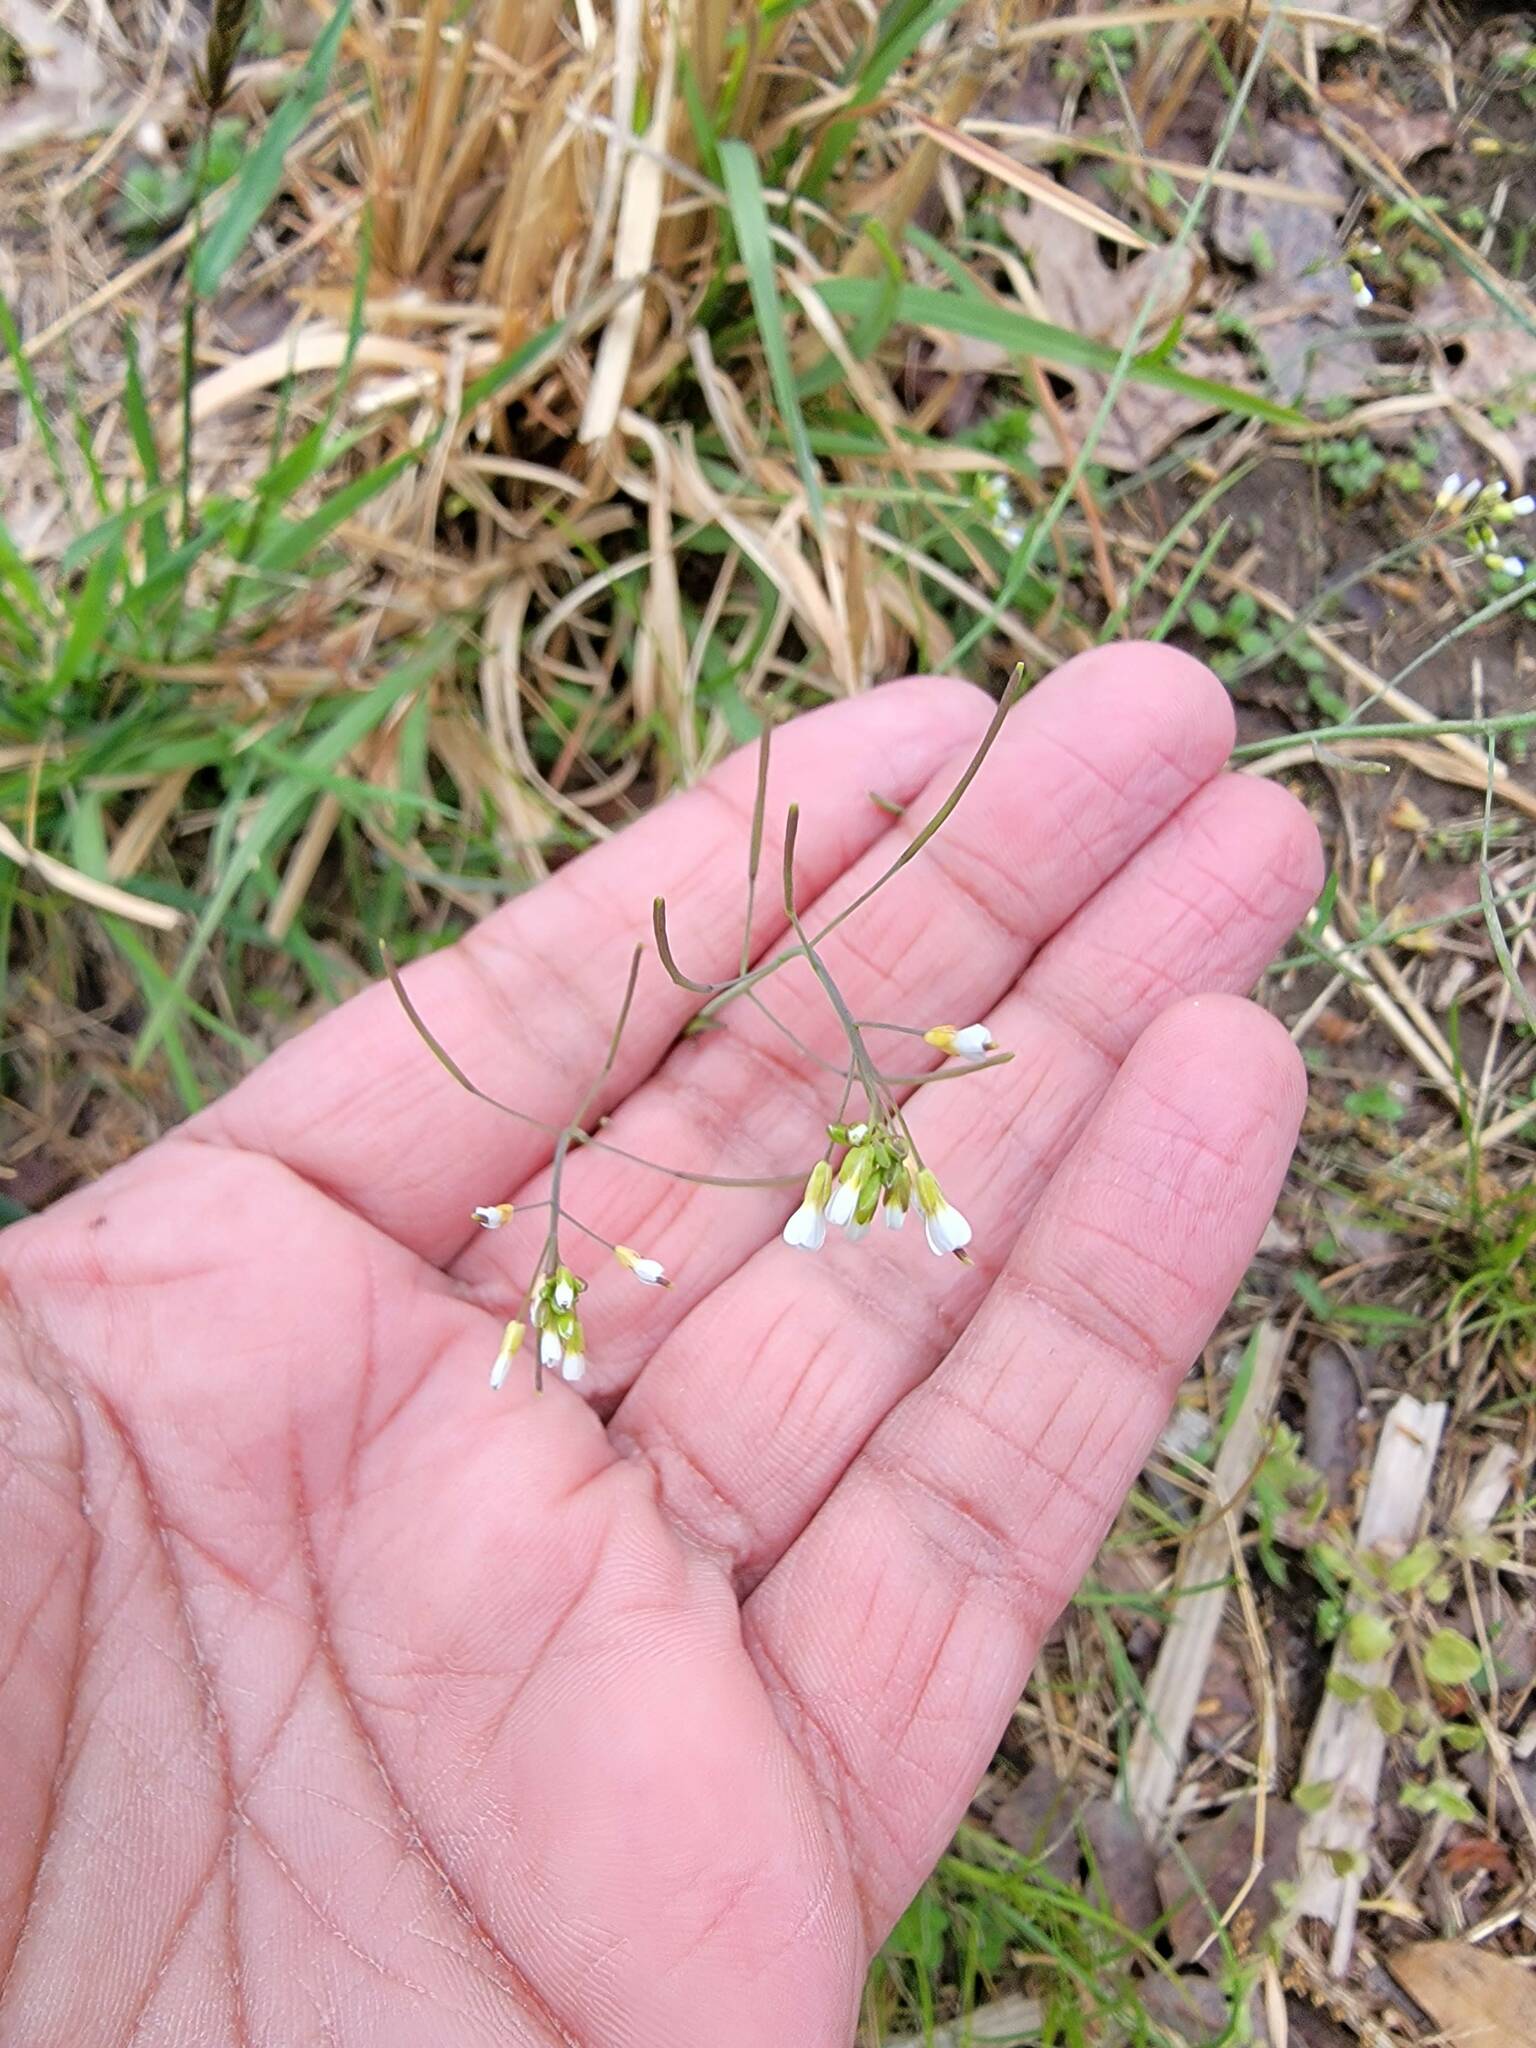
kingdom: Plantae
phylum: Tracheophyta
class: Magnoliopsida
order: Brassicales
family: Brassicaceae
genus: Arabidopsis
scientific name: Arabidopsis thaliana
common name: Thale cress
